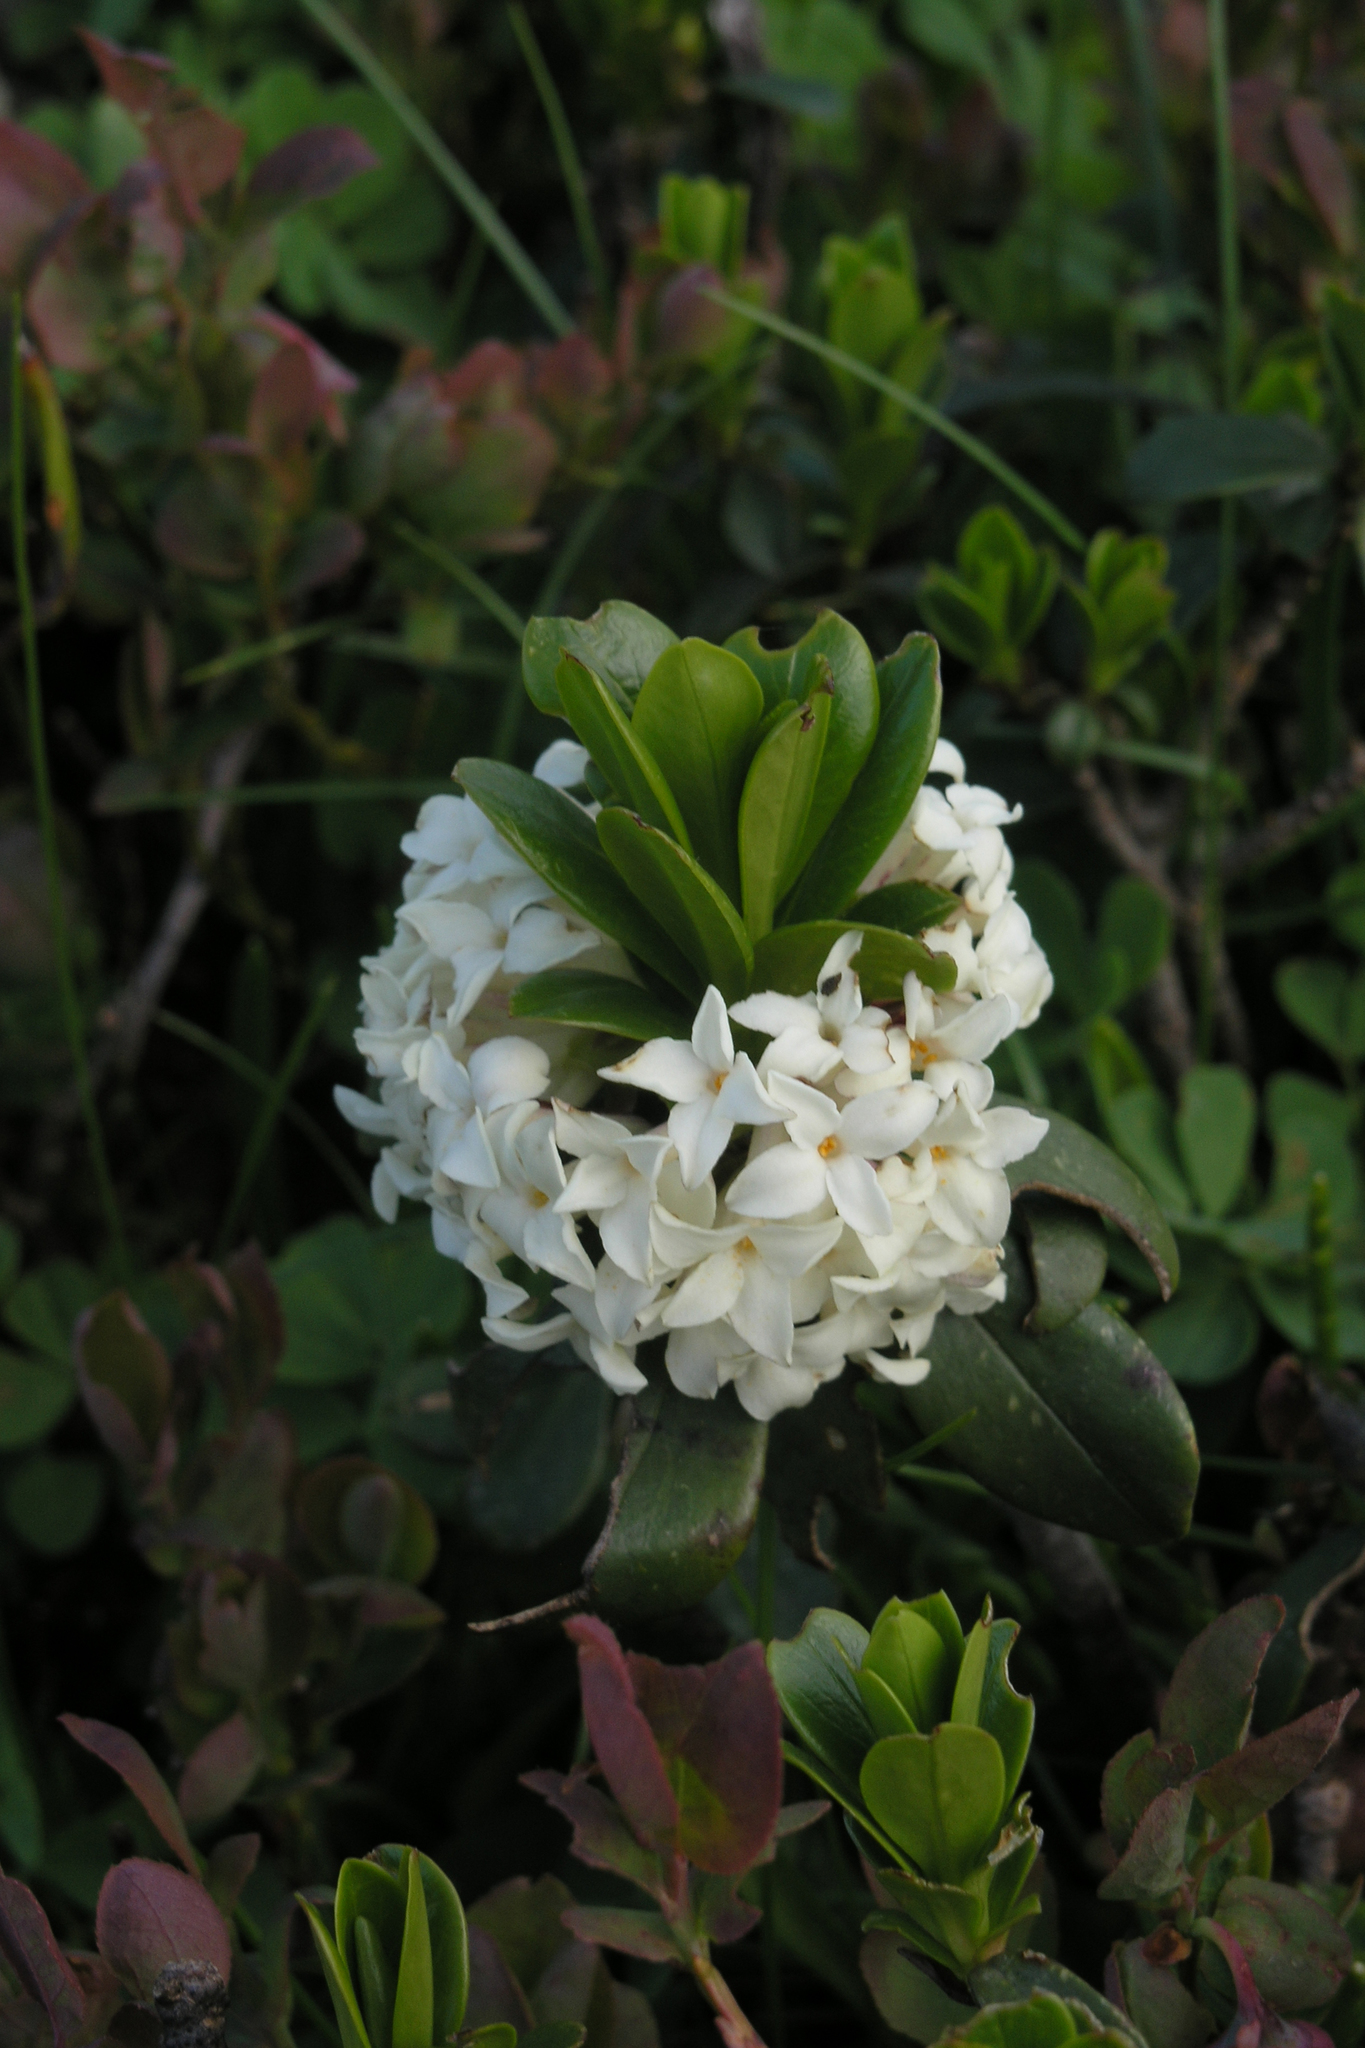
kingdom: Plantae
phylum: Tracheophyta
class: Magnoliopsida
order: Malvales
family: Thymelaeaceae
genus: Daphne
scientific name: Daphne glomerata
